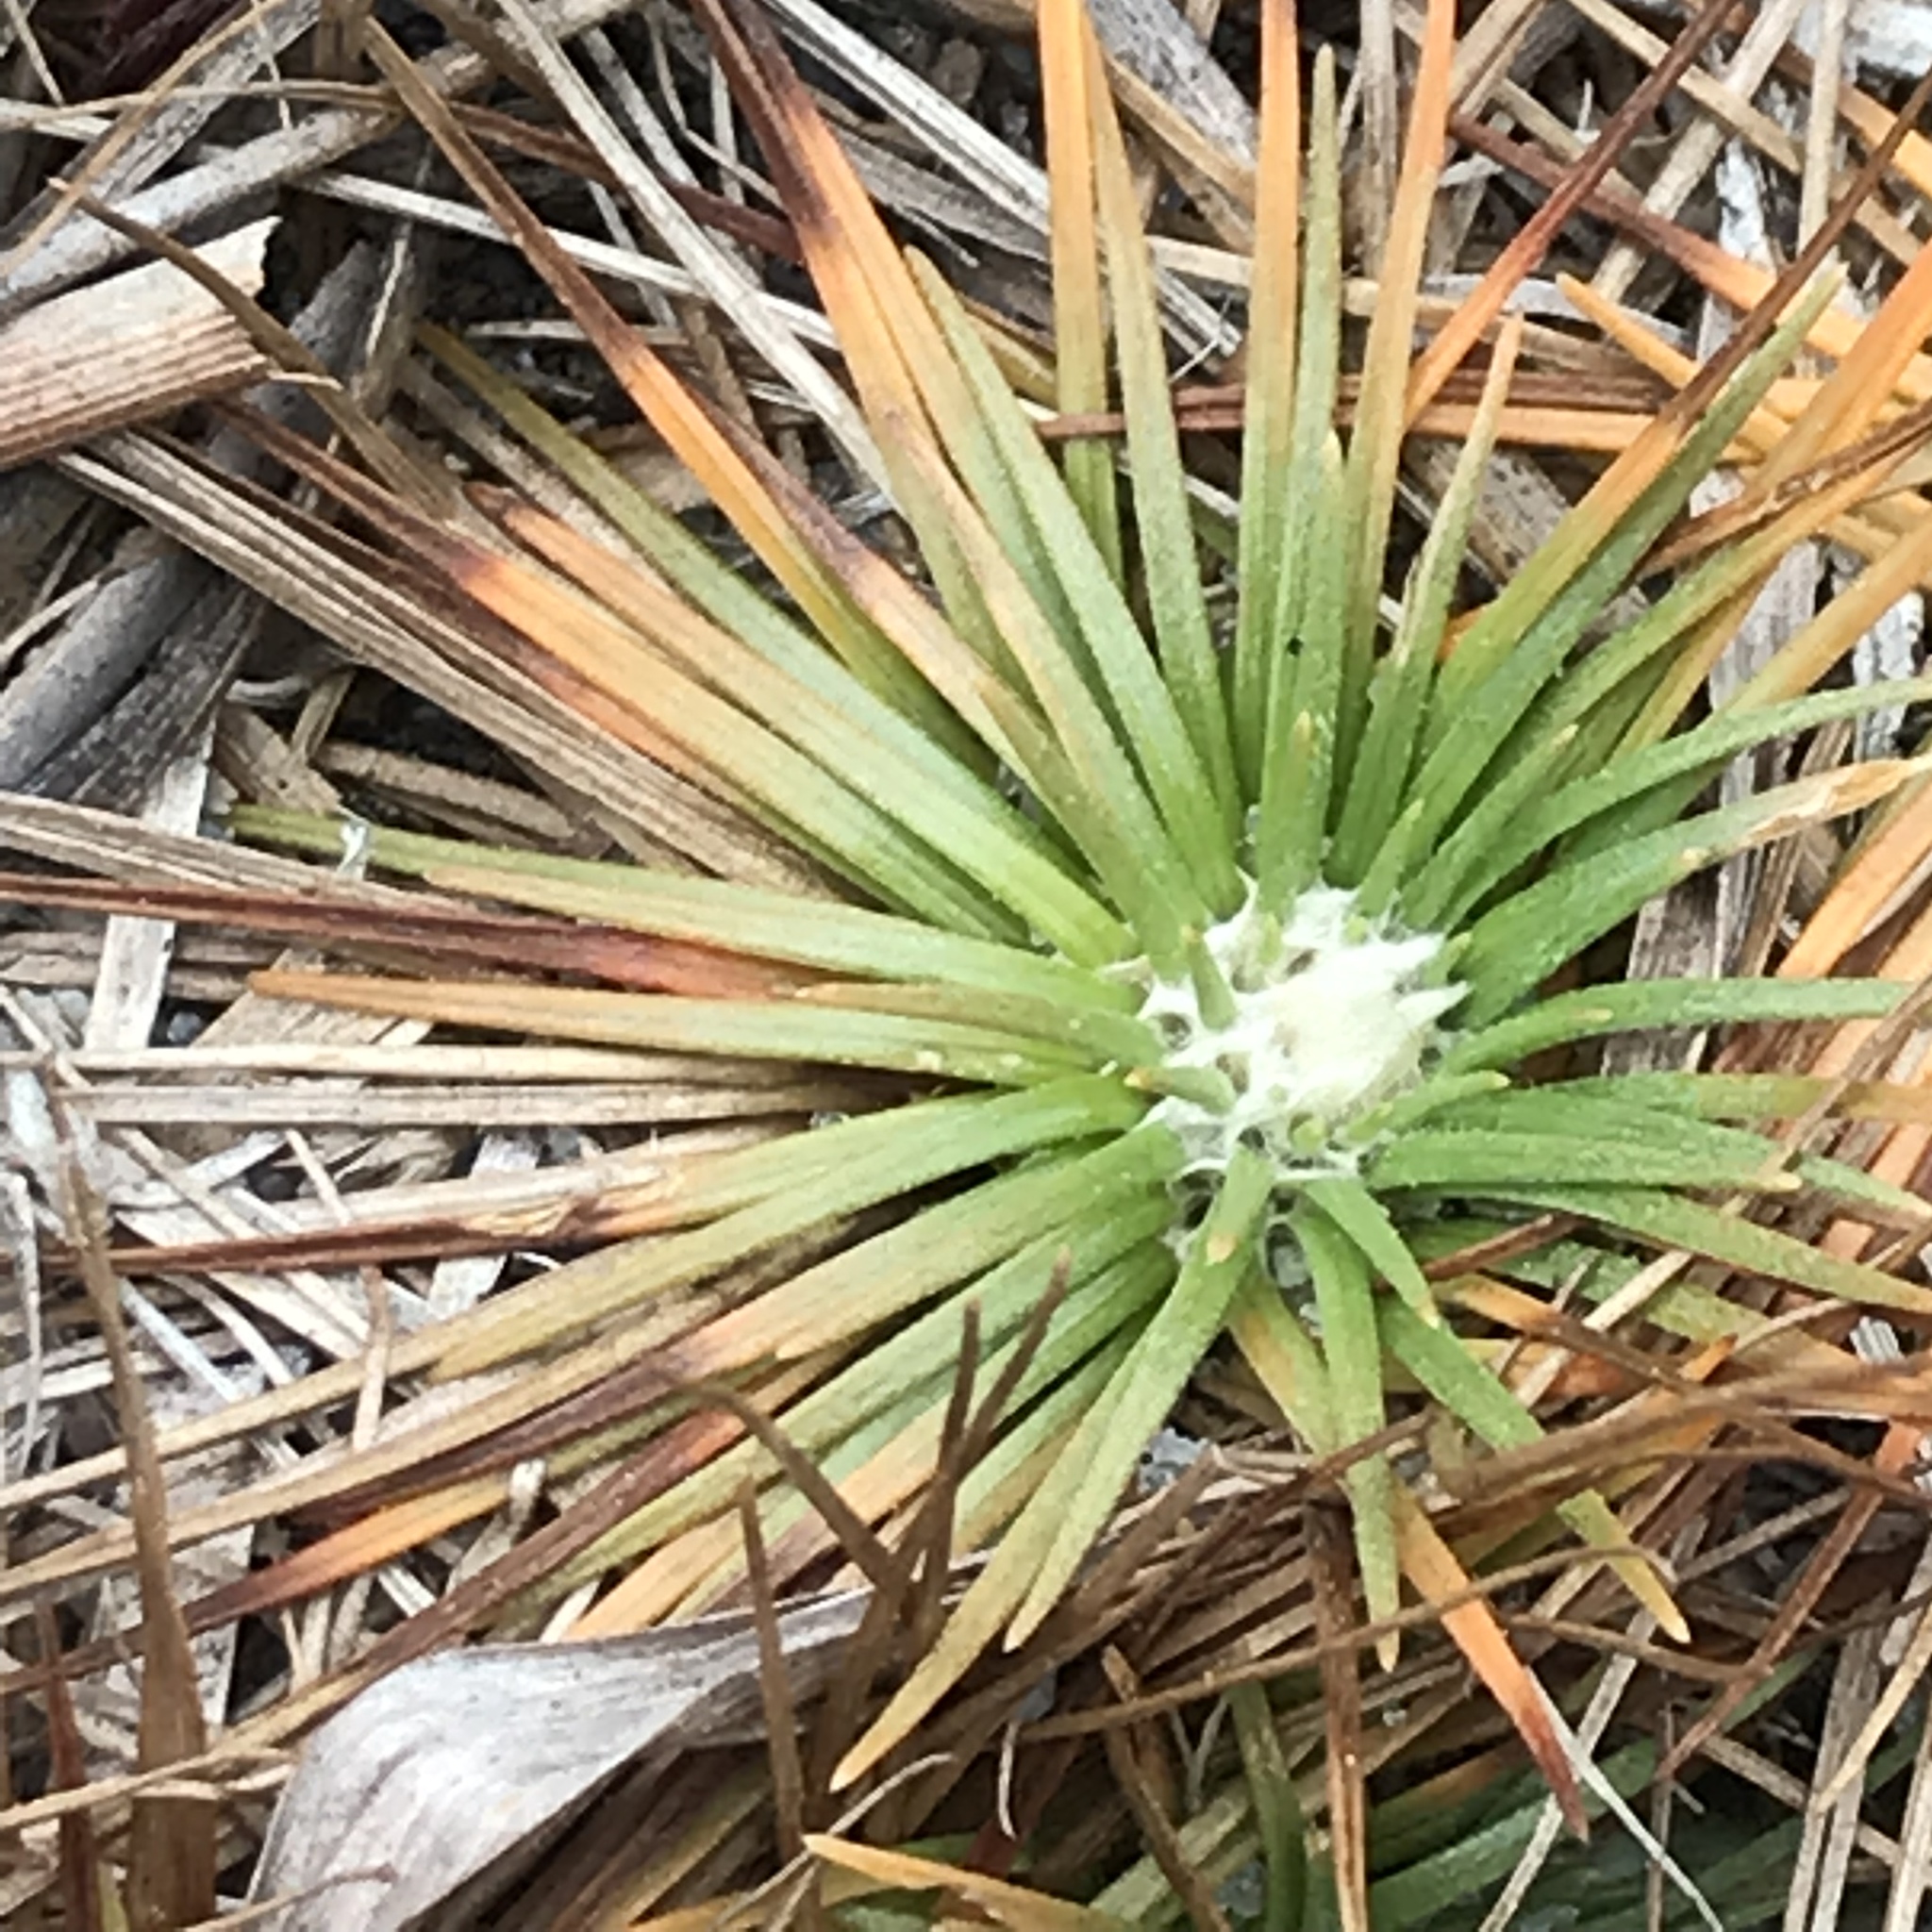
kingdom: Plantae
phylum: Tracheophyta
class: Liliopsida
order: Poales
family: Eriocaulaceae
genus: Syngonanthus
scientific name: Syngonanthus flavidulus
